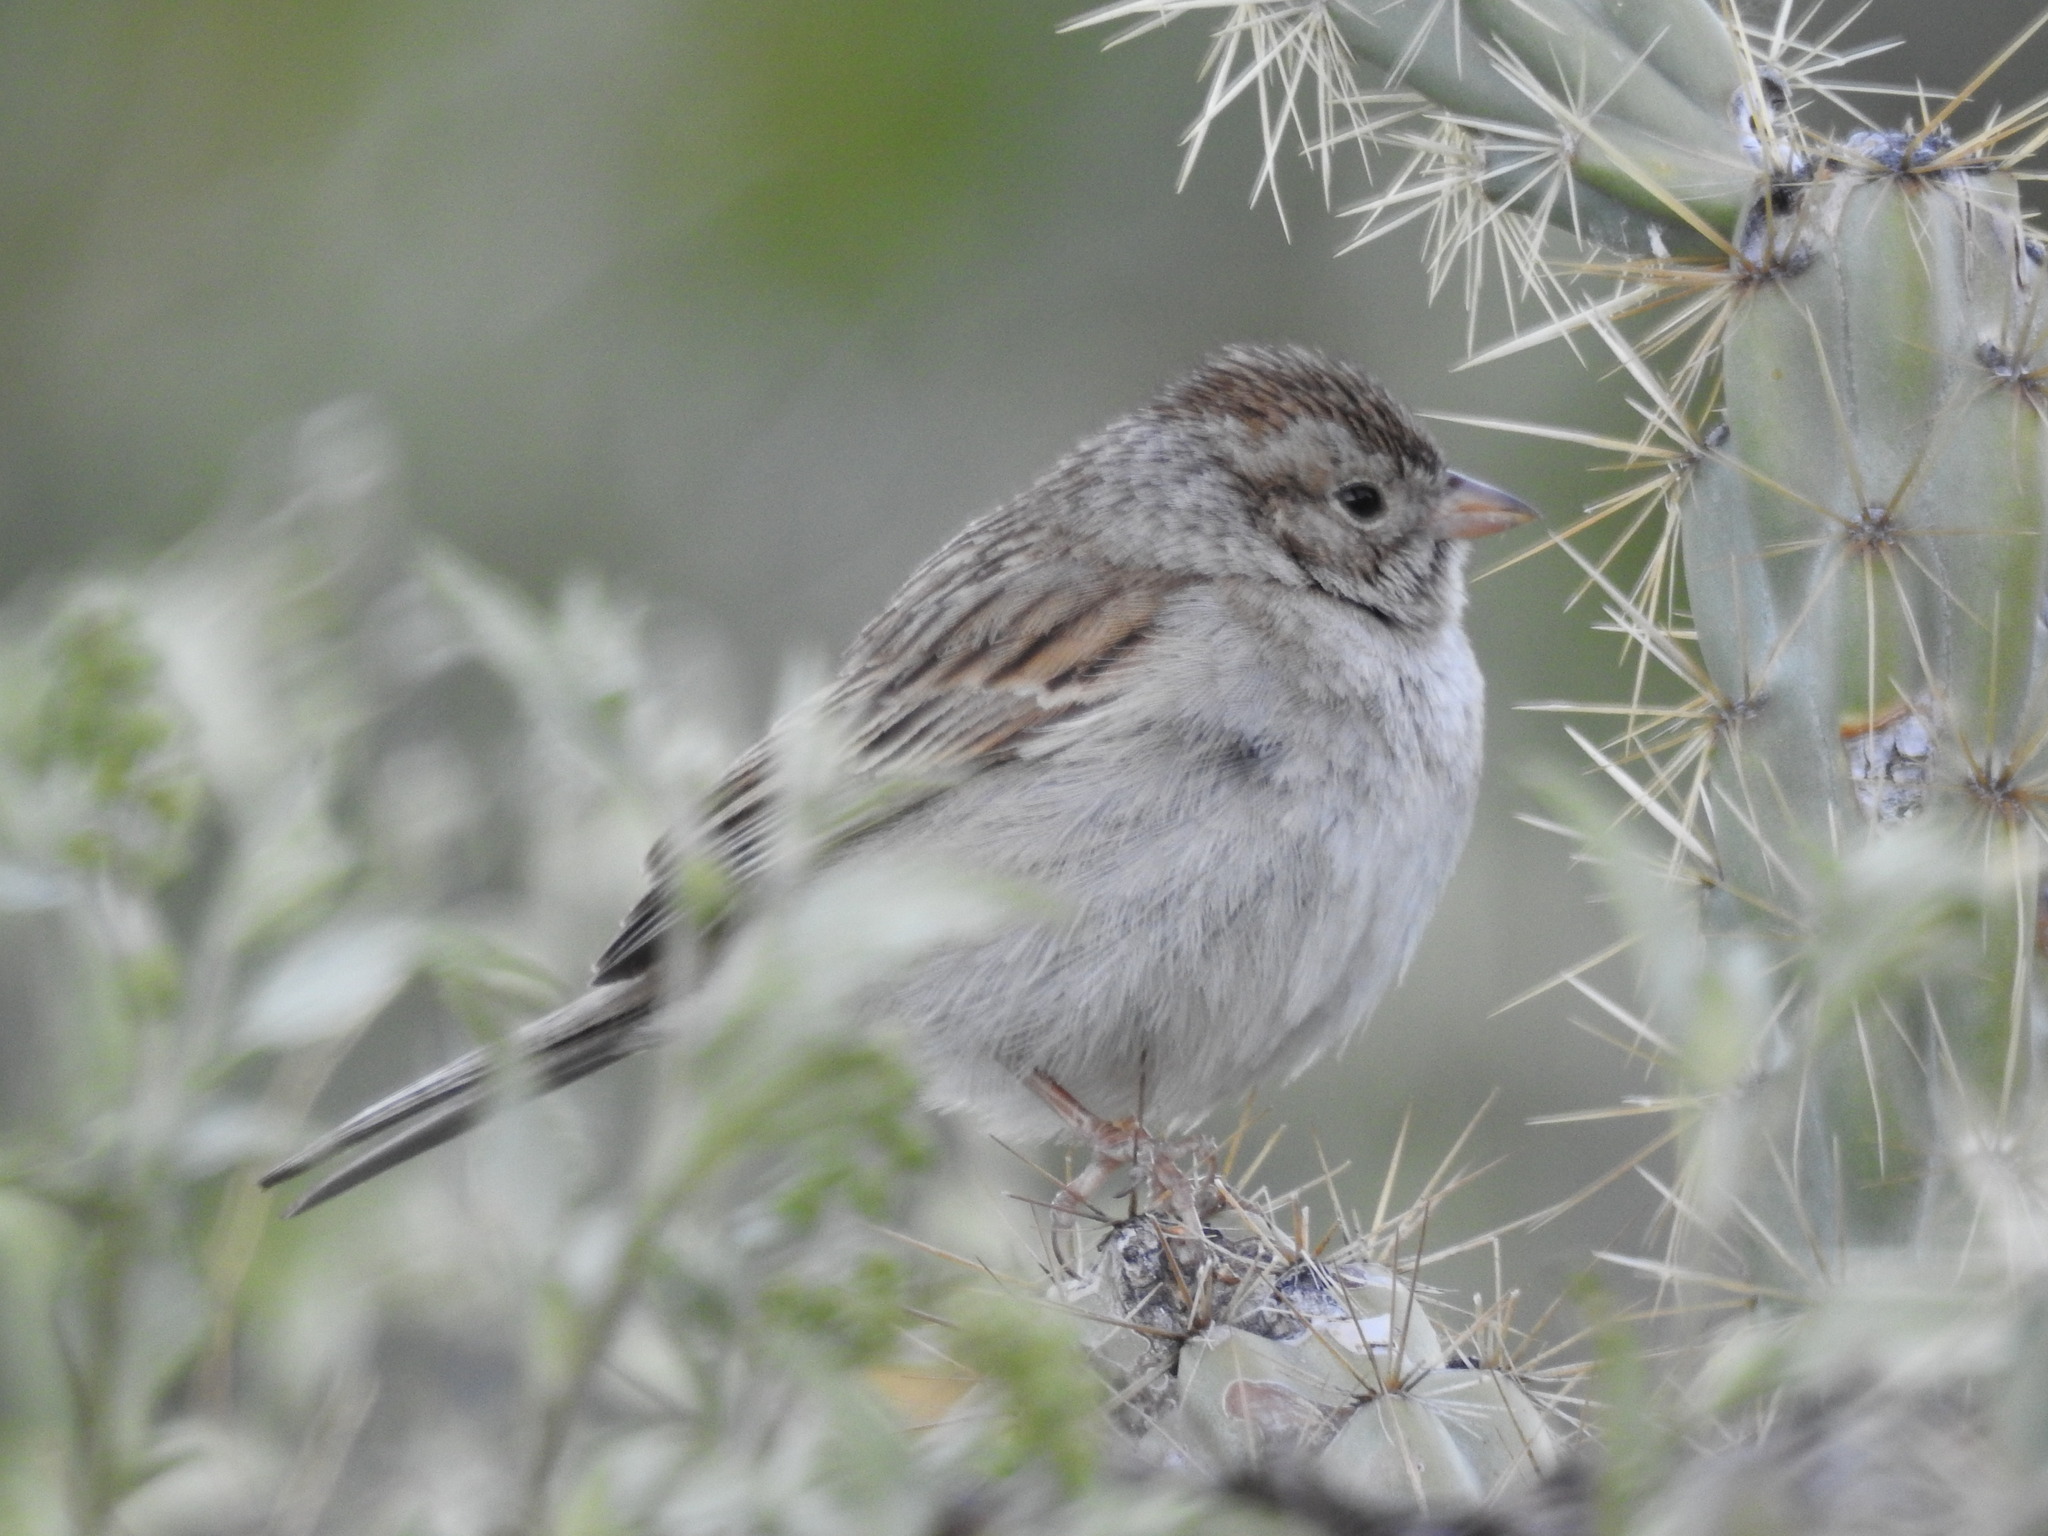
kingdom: Animalia
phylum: Chordata
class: Aves
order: Passeriformes
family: Passerellidae
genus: Spizella
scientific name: Spizella breweri
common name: Brewer's sparrow
